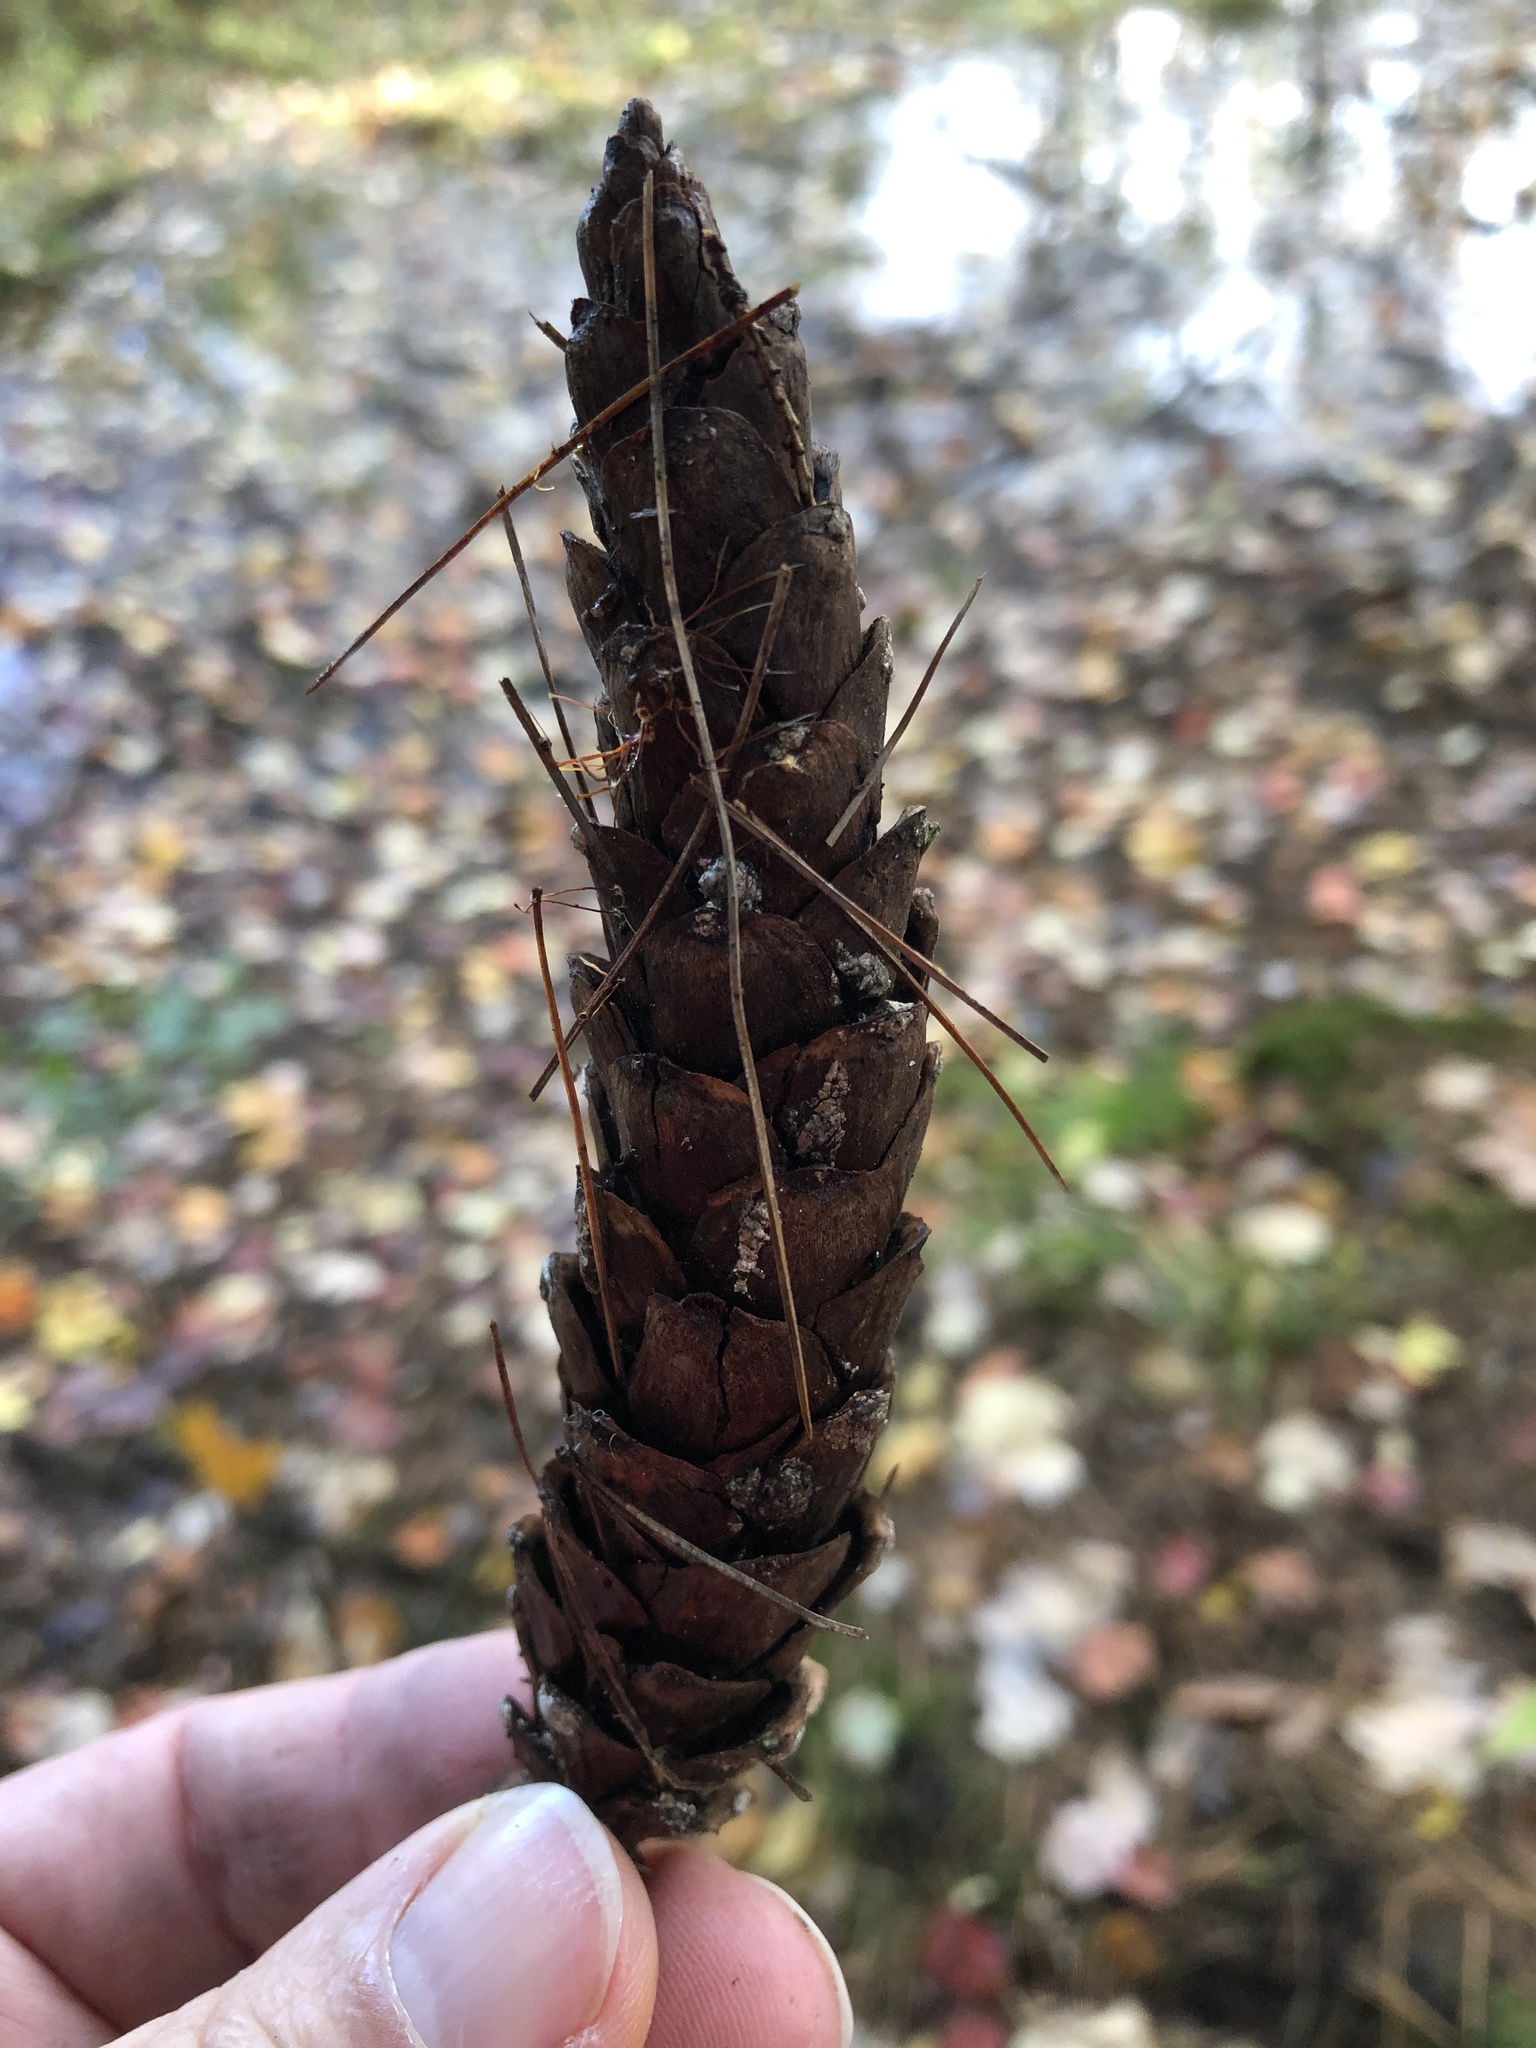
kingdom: Plantae
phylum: Tracheophyta
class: Pinopsida
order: Pinales
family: Pinaceae
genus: Pinus
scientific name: Pinus strobus
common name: Weymouth pine
